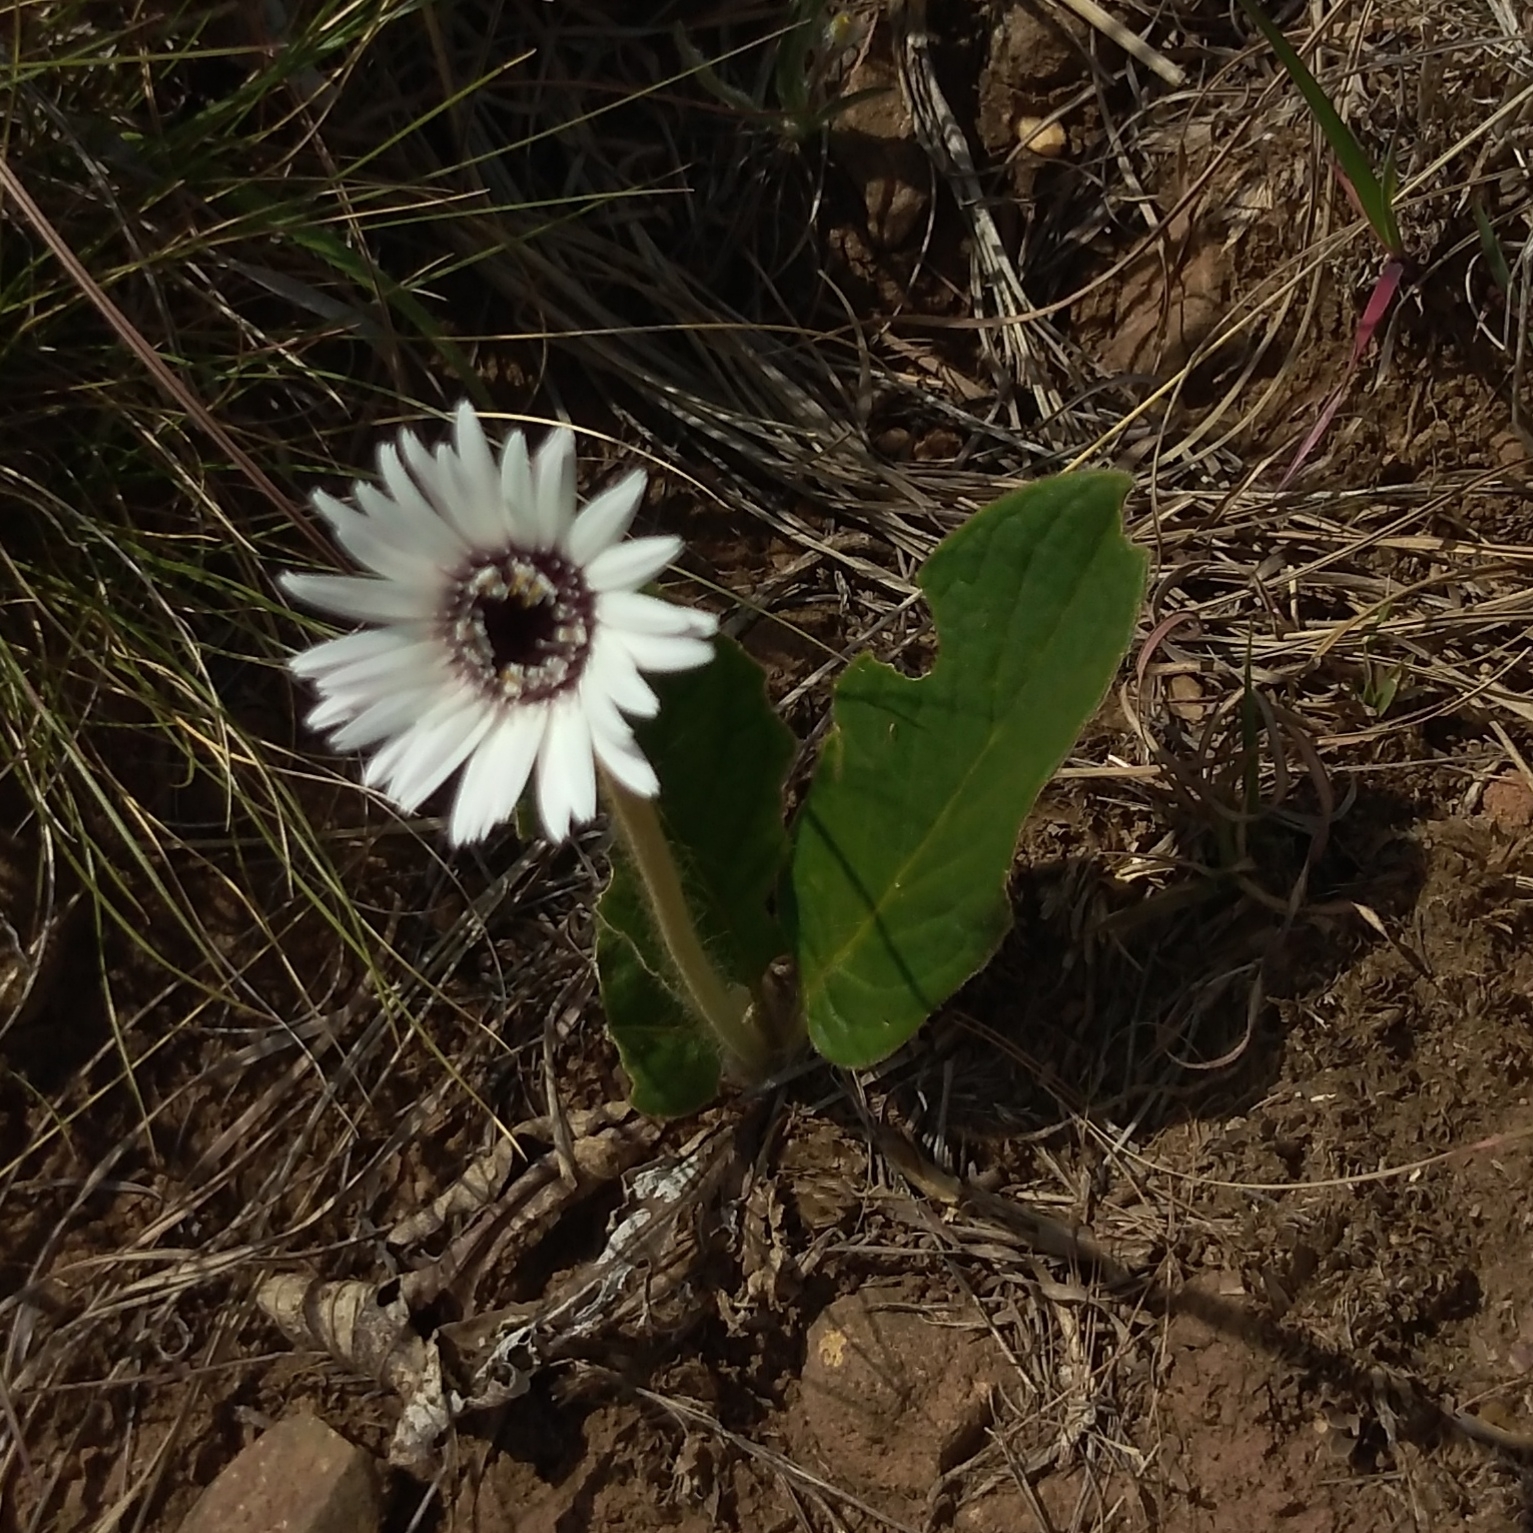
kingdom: Plantae
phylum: Tracheophyta
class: Magnoliopsida
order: Asterales
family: Asteraceae
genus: Gerbera
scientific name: Gerbera ambigua
